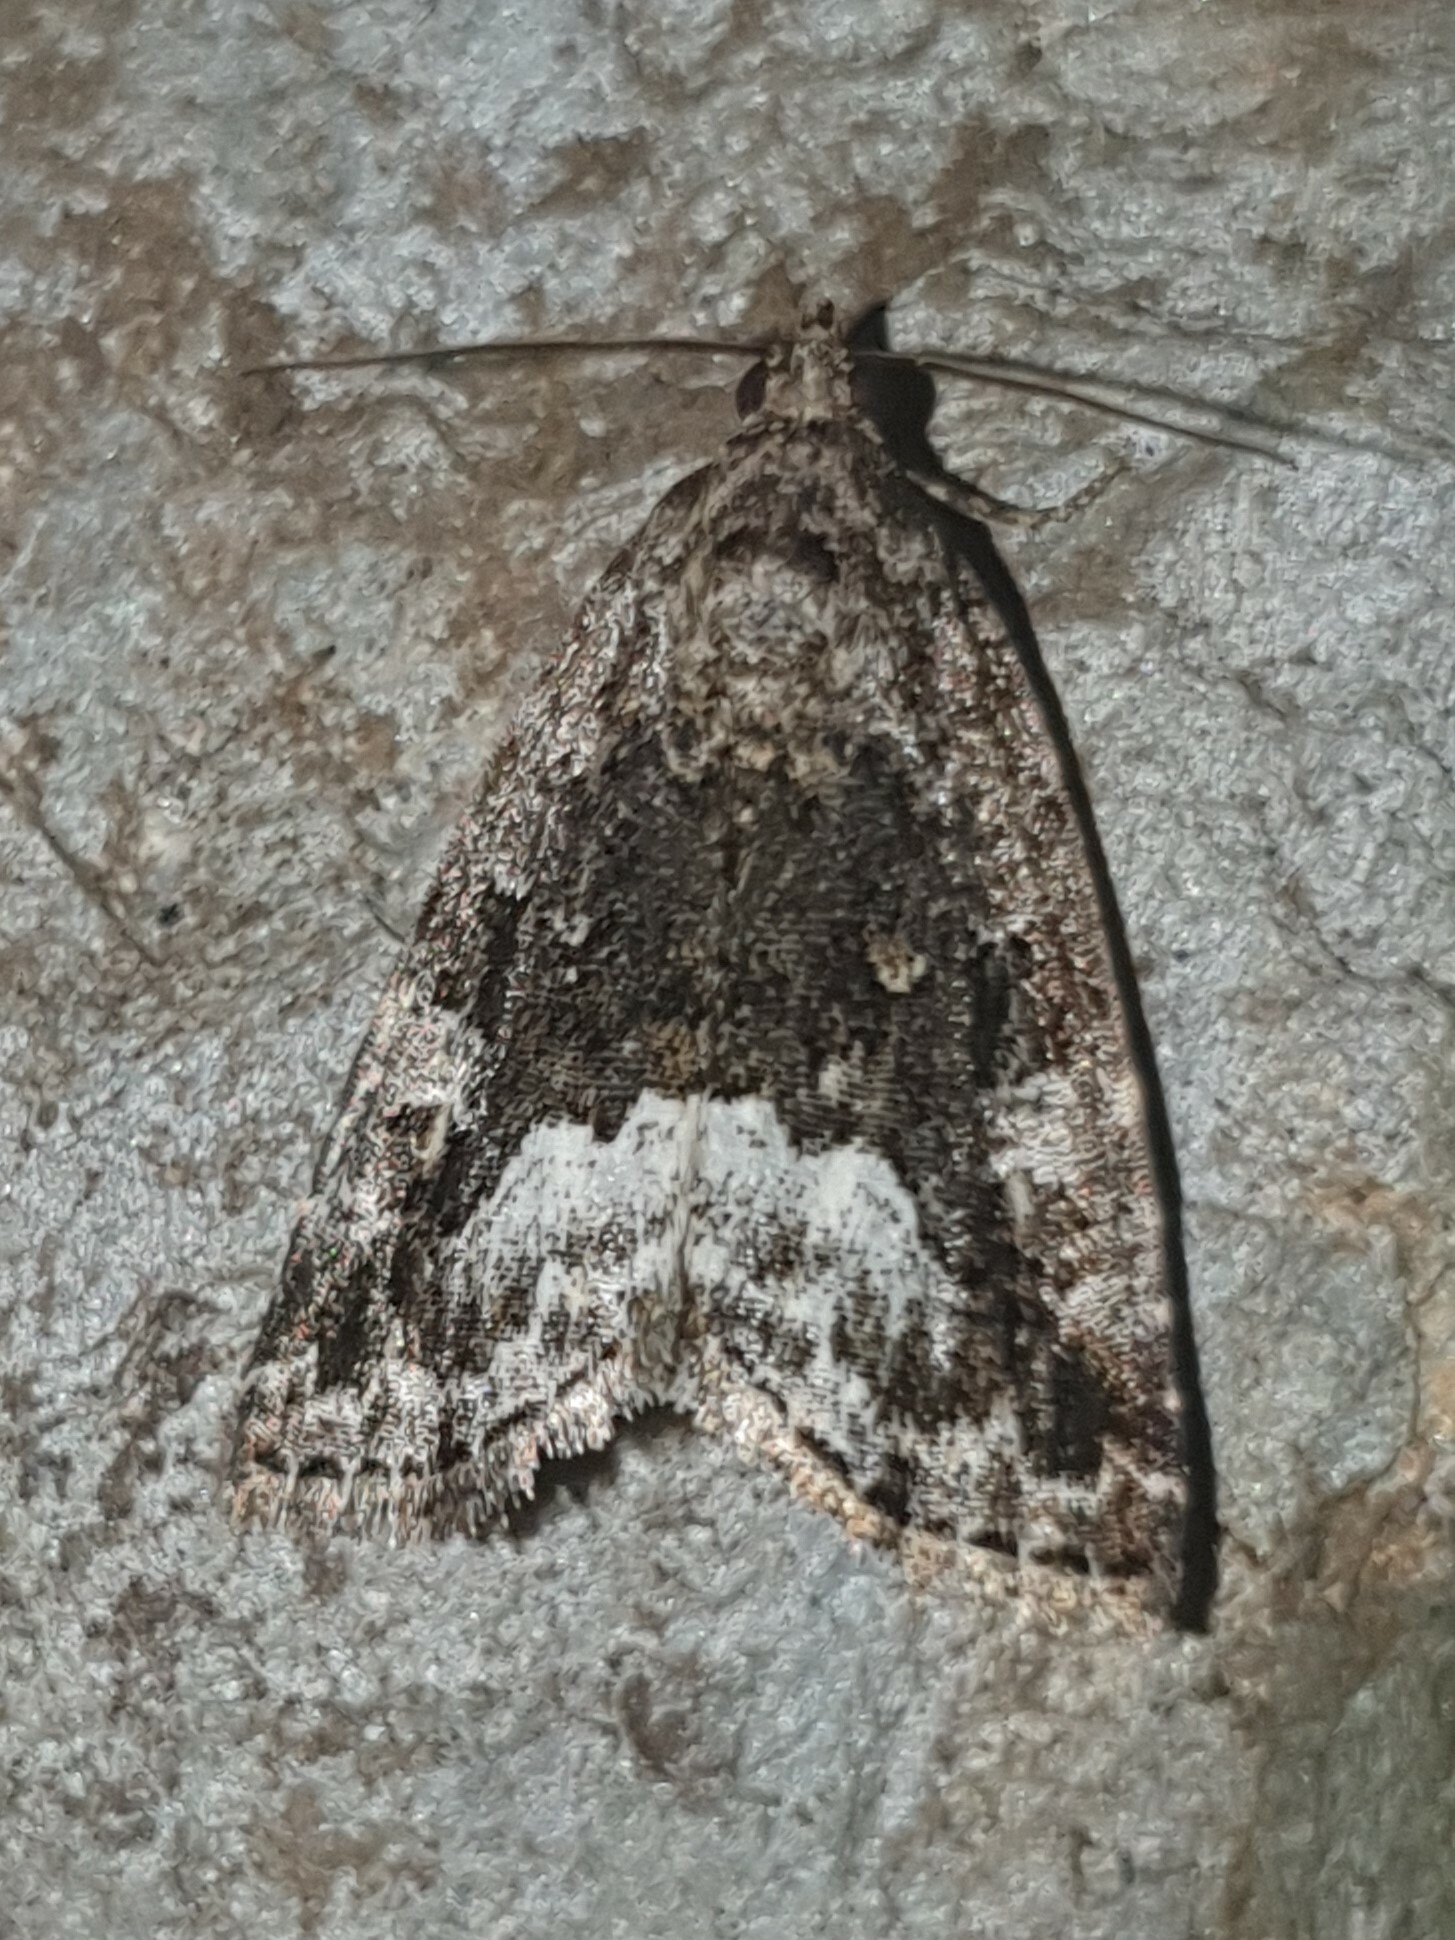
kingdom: Animalia
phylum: Arthropoda
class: Insecta
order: Lepidoptera
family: Noctuidae
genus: Deltote
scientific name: Deltote pygarga
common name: Marbled white spot
